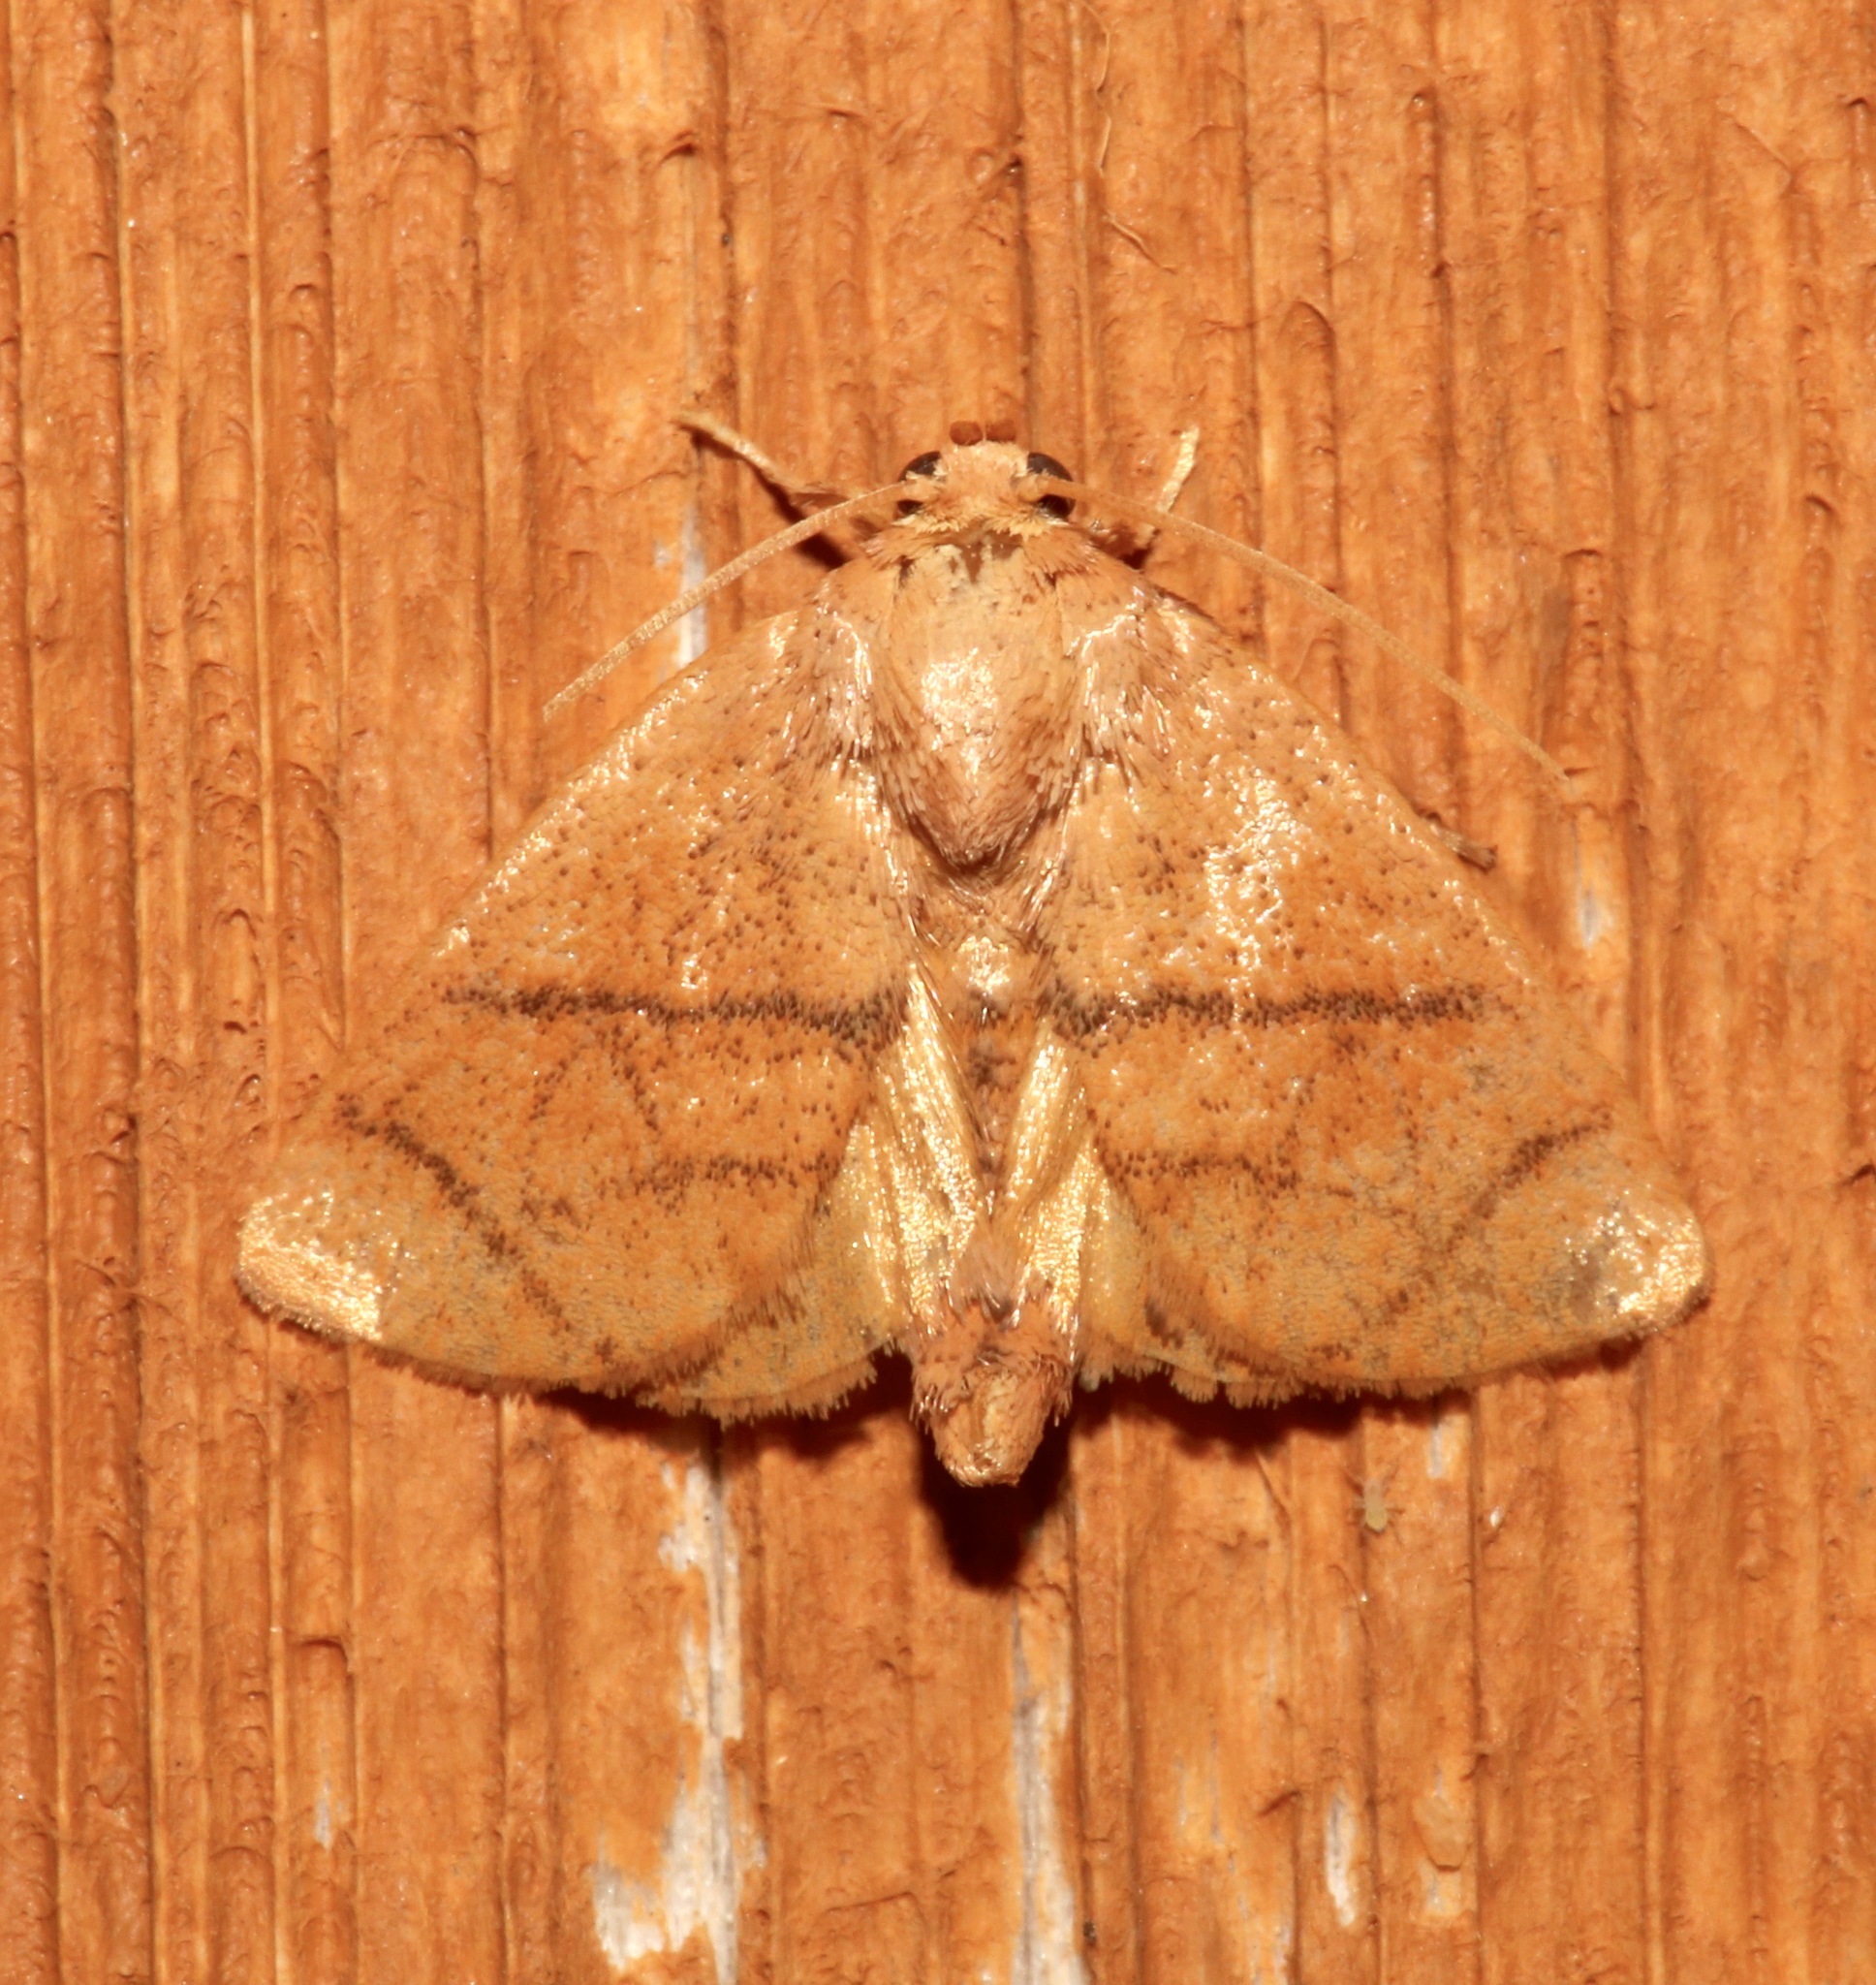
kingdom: Animalia
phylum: Arthropoda
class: Insecta
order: Lepidoptera
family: Limacodidae
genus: Apoda
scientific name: Apoda y-inversa
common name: Yellow-collared slug moth
